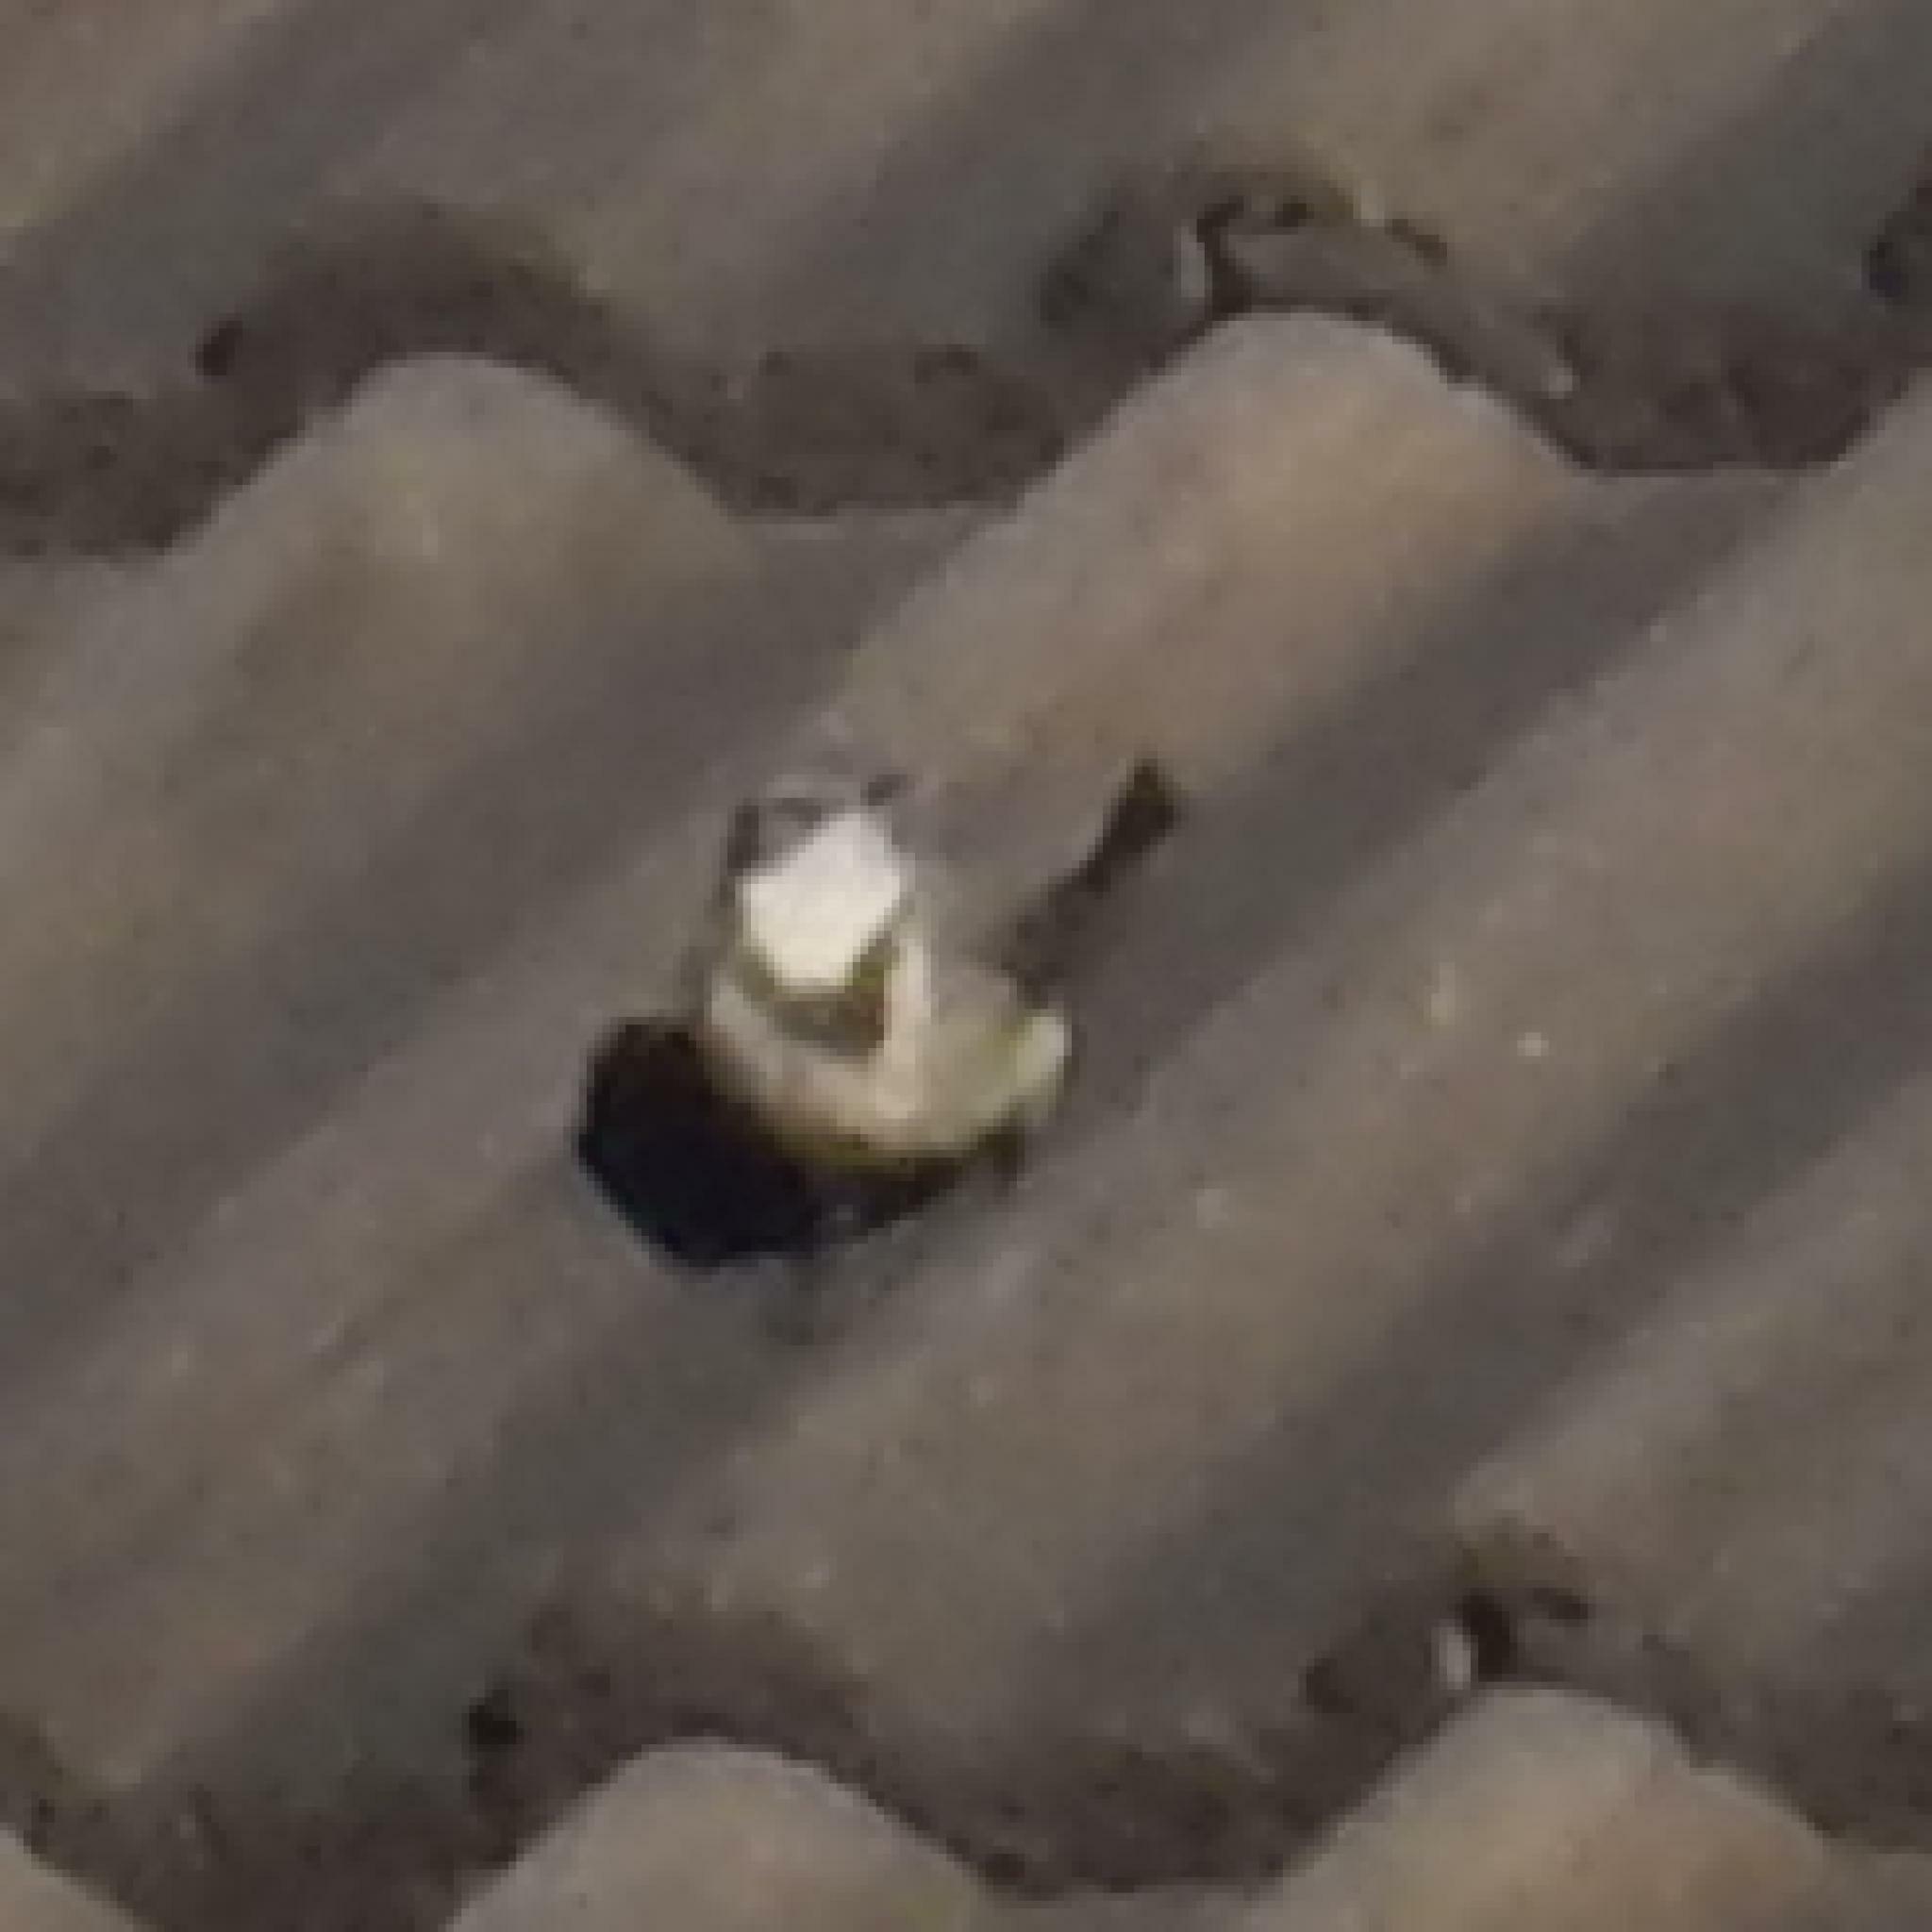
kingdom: Animalia
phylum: Chordata
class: Aves
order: Passeriformes
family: Motacillidae
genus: Motacilla
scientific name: Motacilla capensis
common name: Cape wagtail
